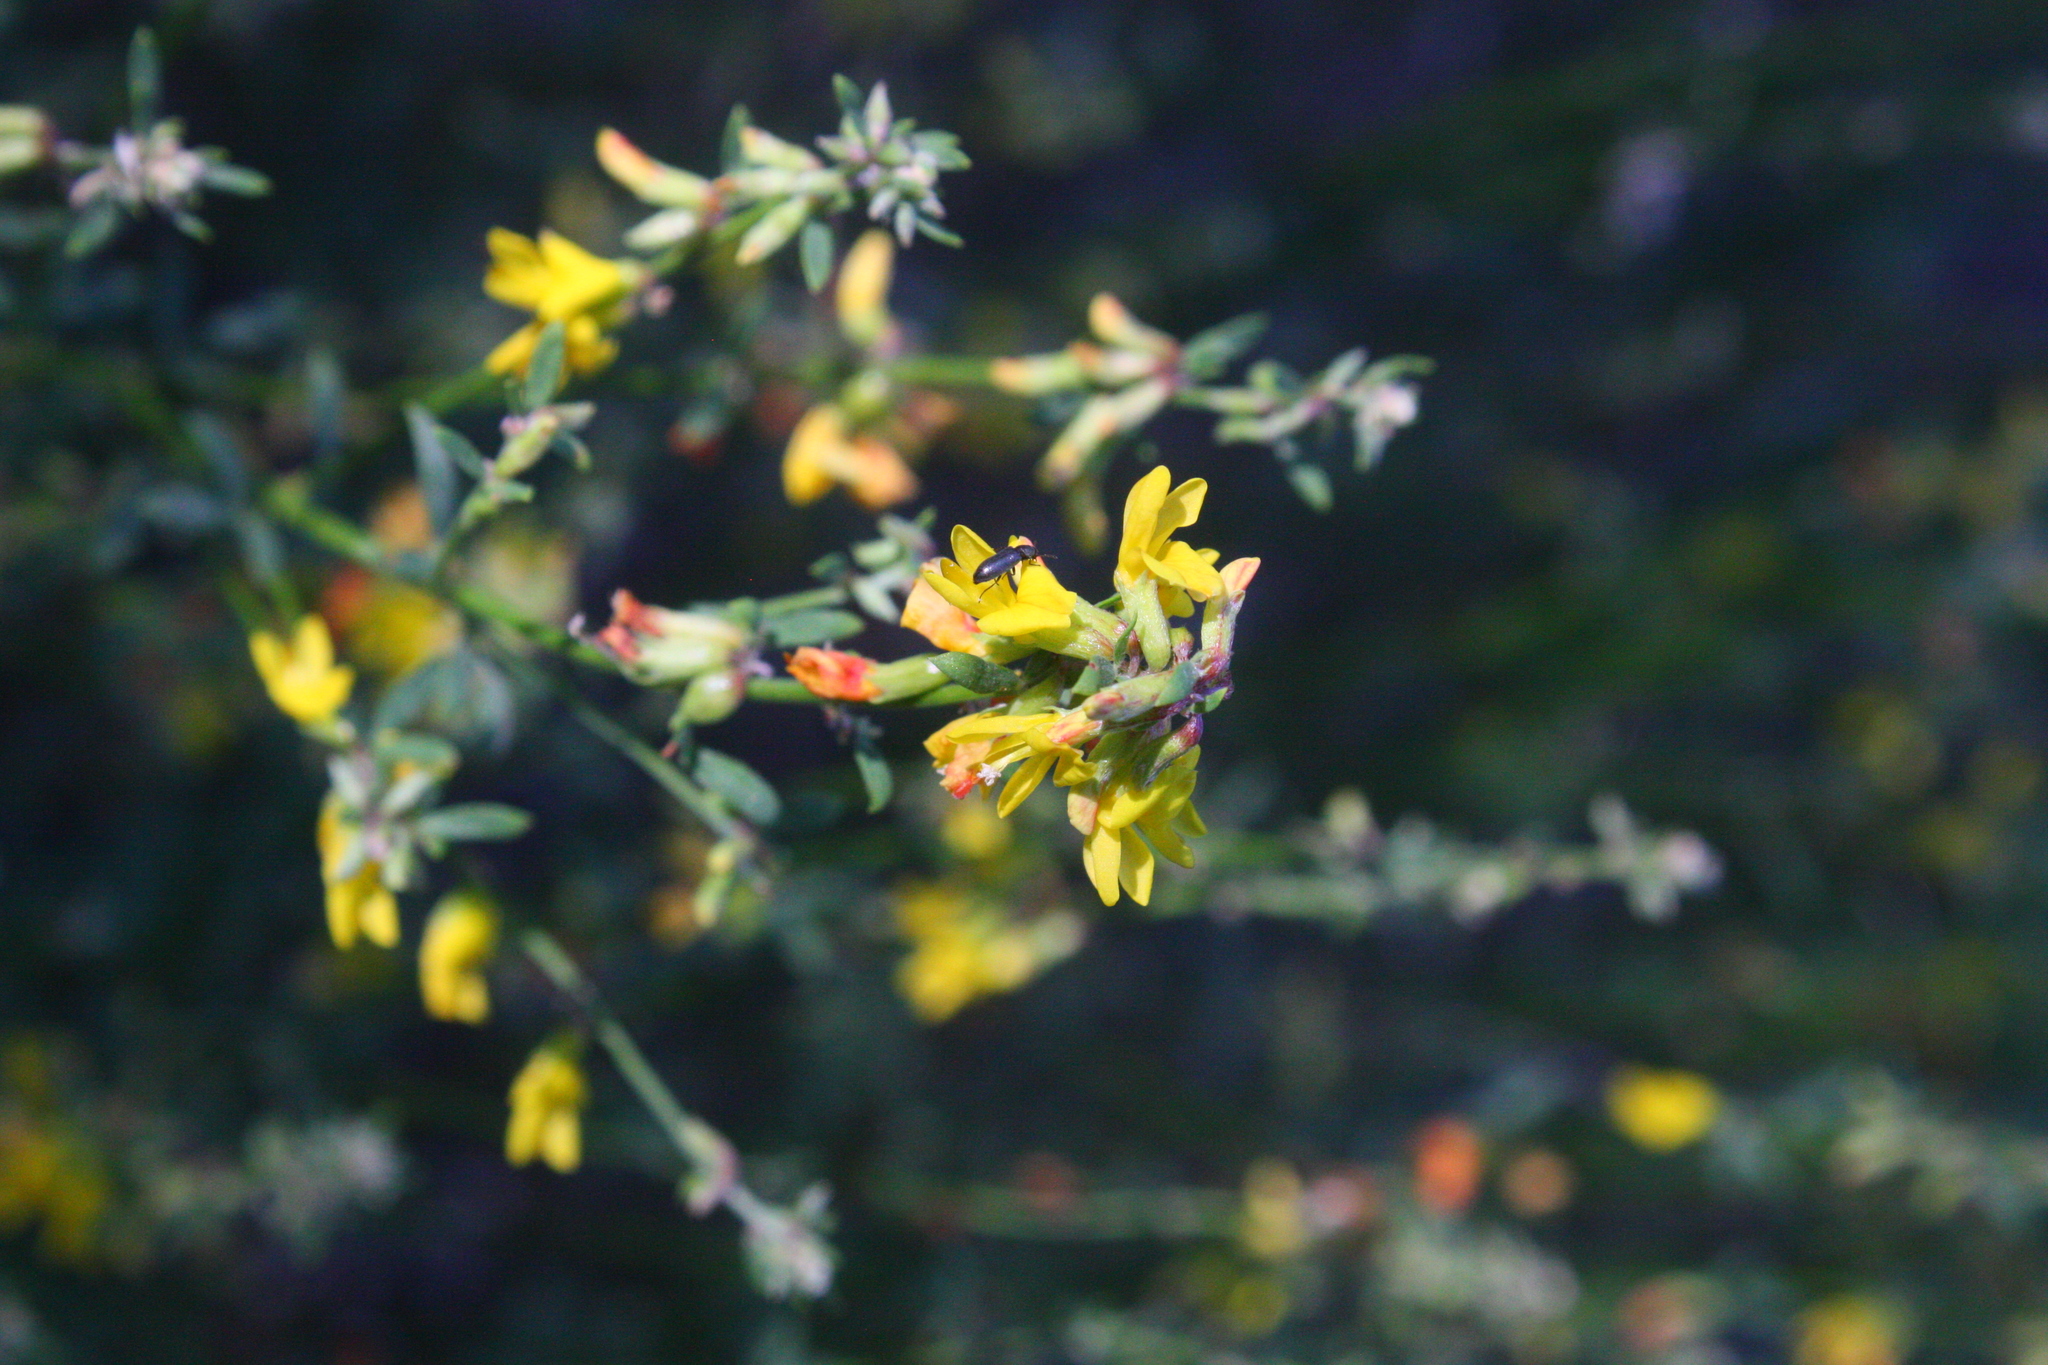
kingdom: Plantae
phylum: Tracheophyta
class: Magnoliopsida
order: Fabales
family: Fabaceae
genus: Acmispon
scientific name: Acmispon glaber
